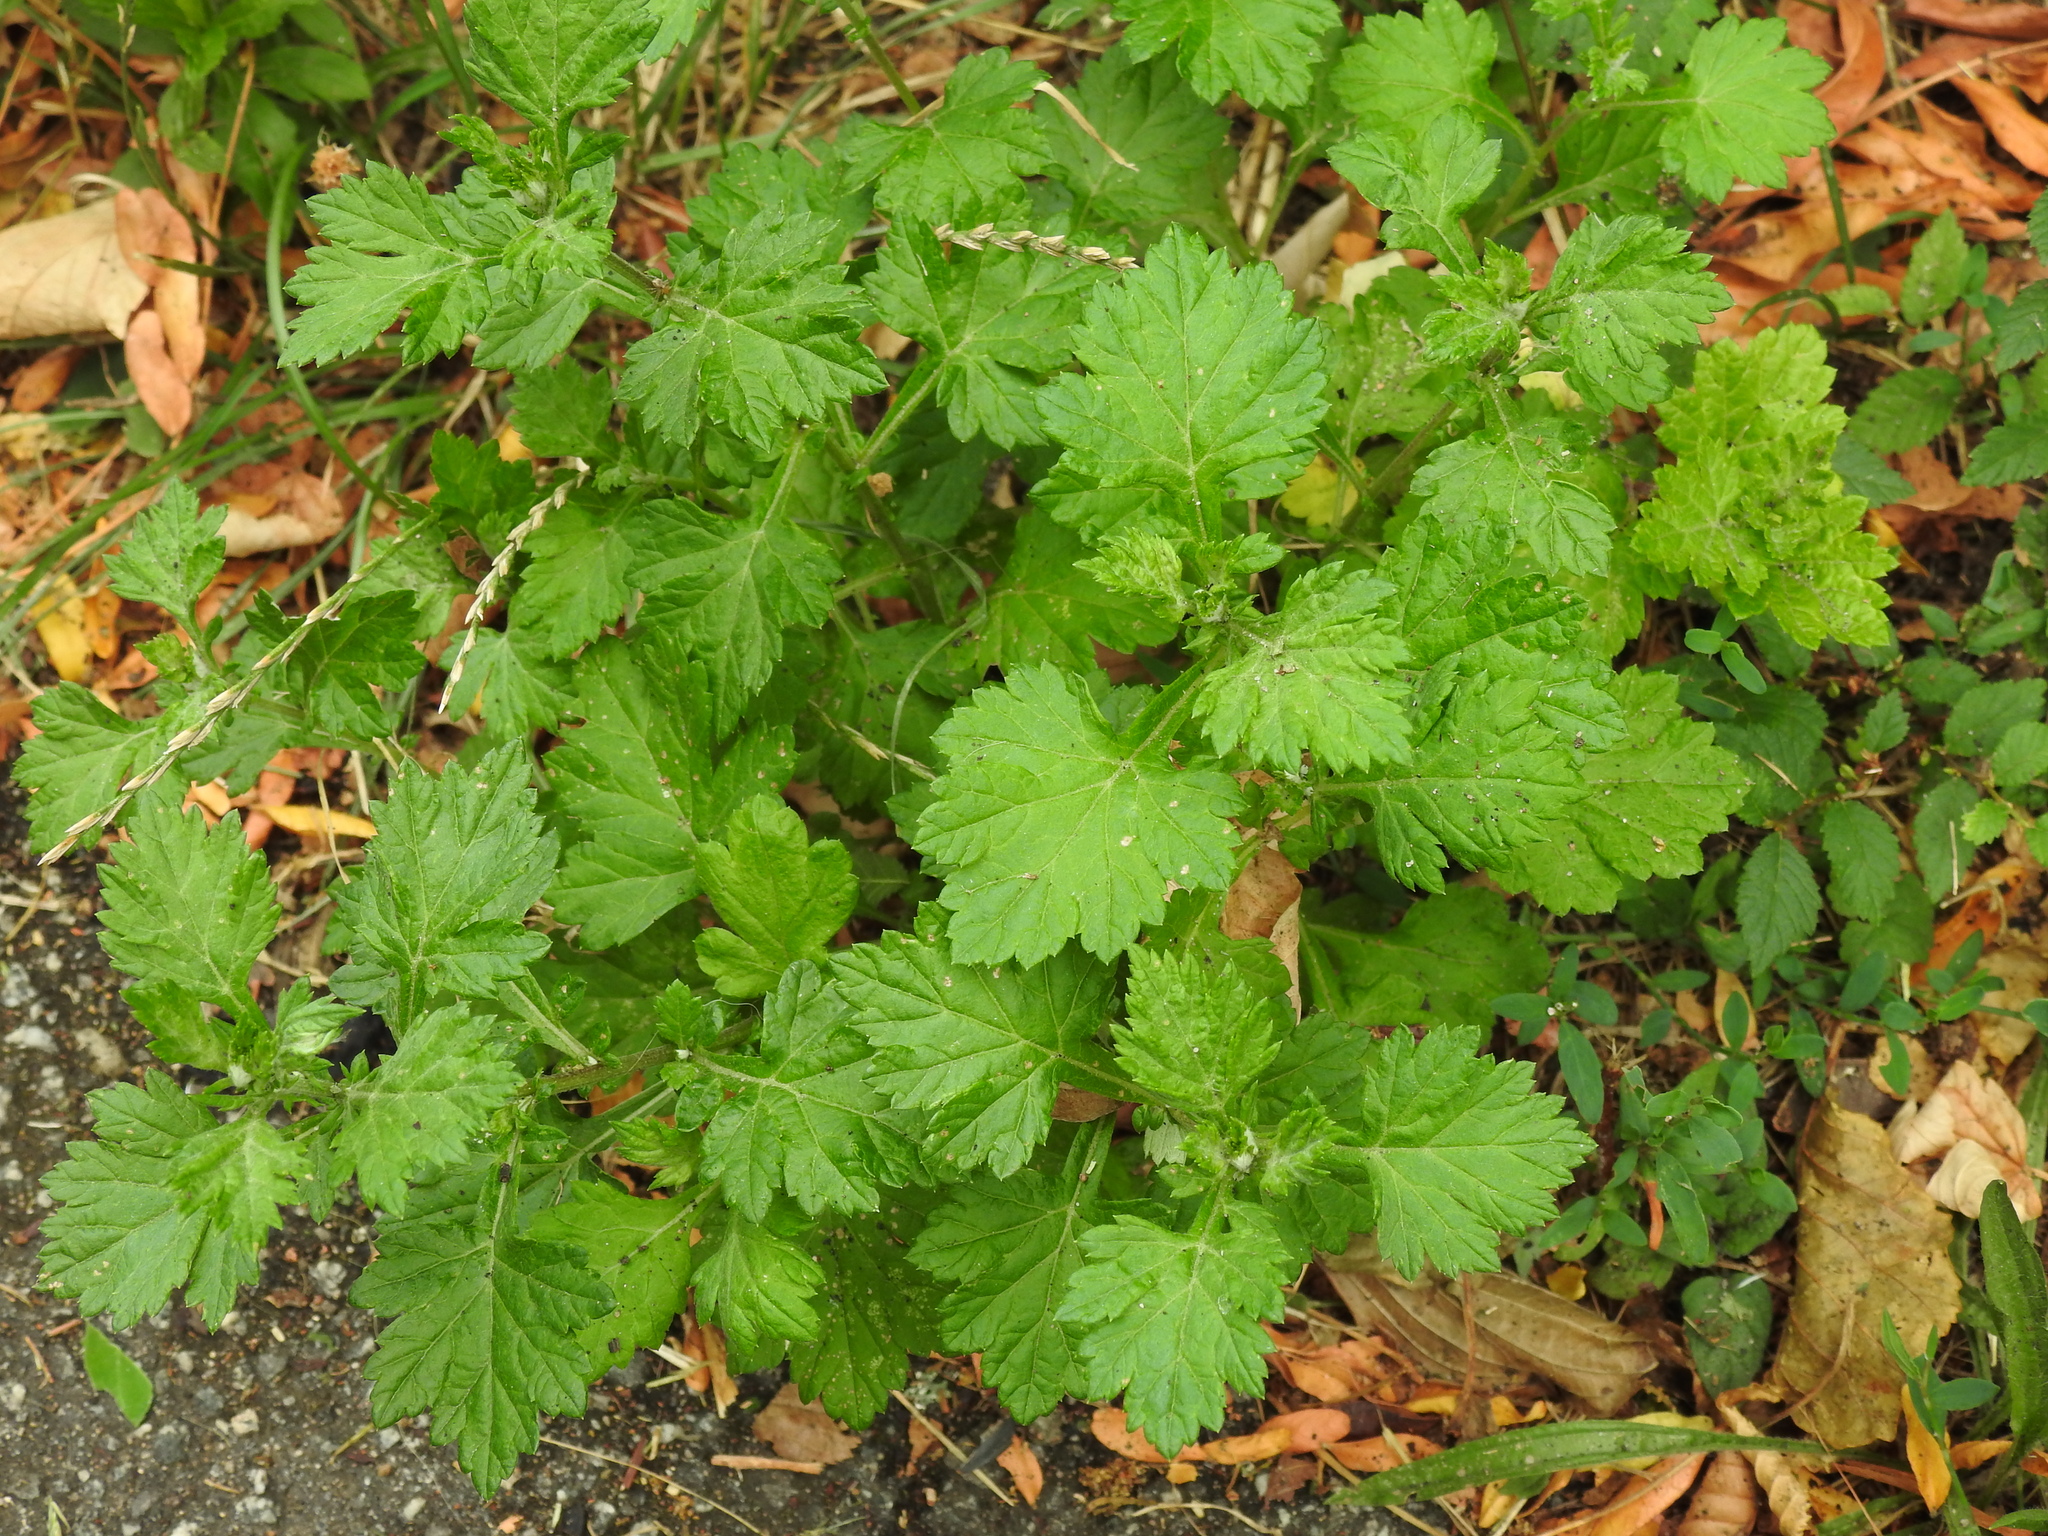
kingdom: Plantae
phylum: Tracheophyta
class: Magnoliopsida
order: Asterales
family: Asteraceae
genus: Artemisia
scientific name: Artemisia vulgaris
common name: Mugwort
